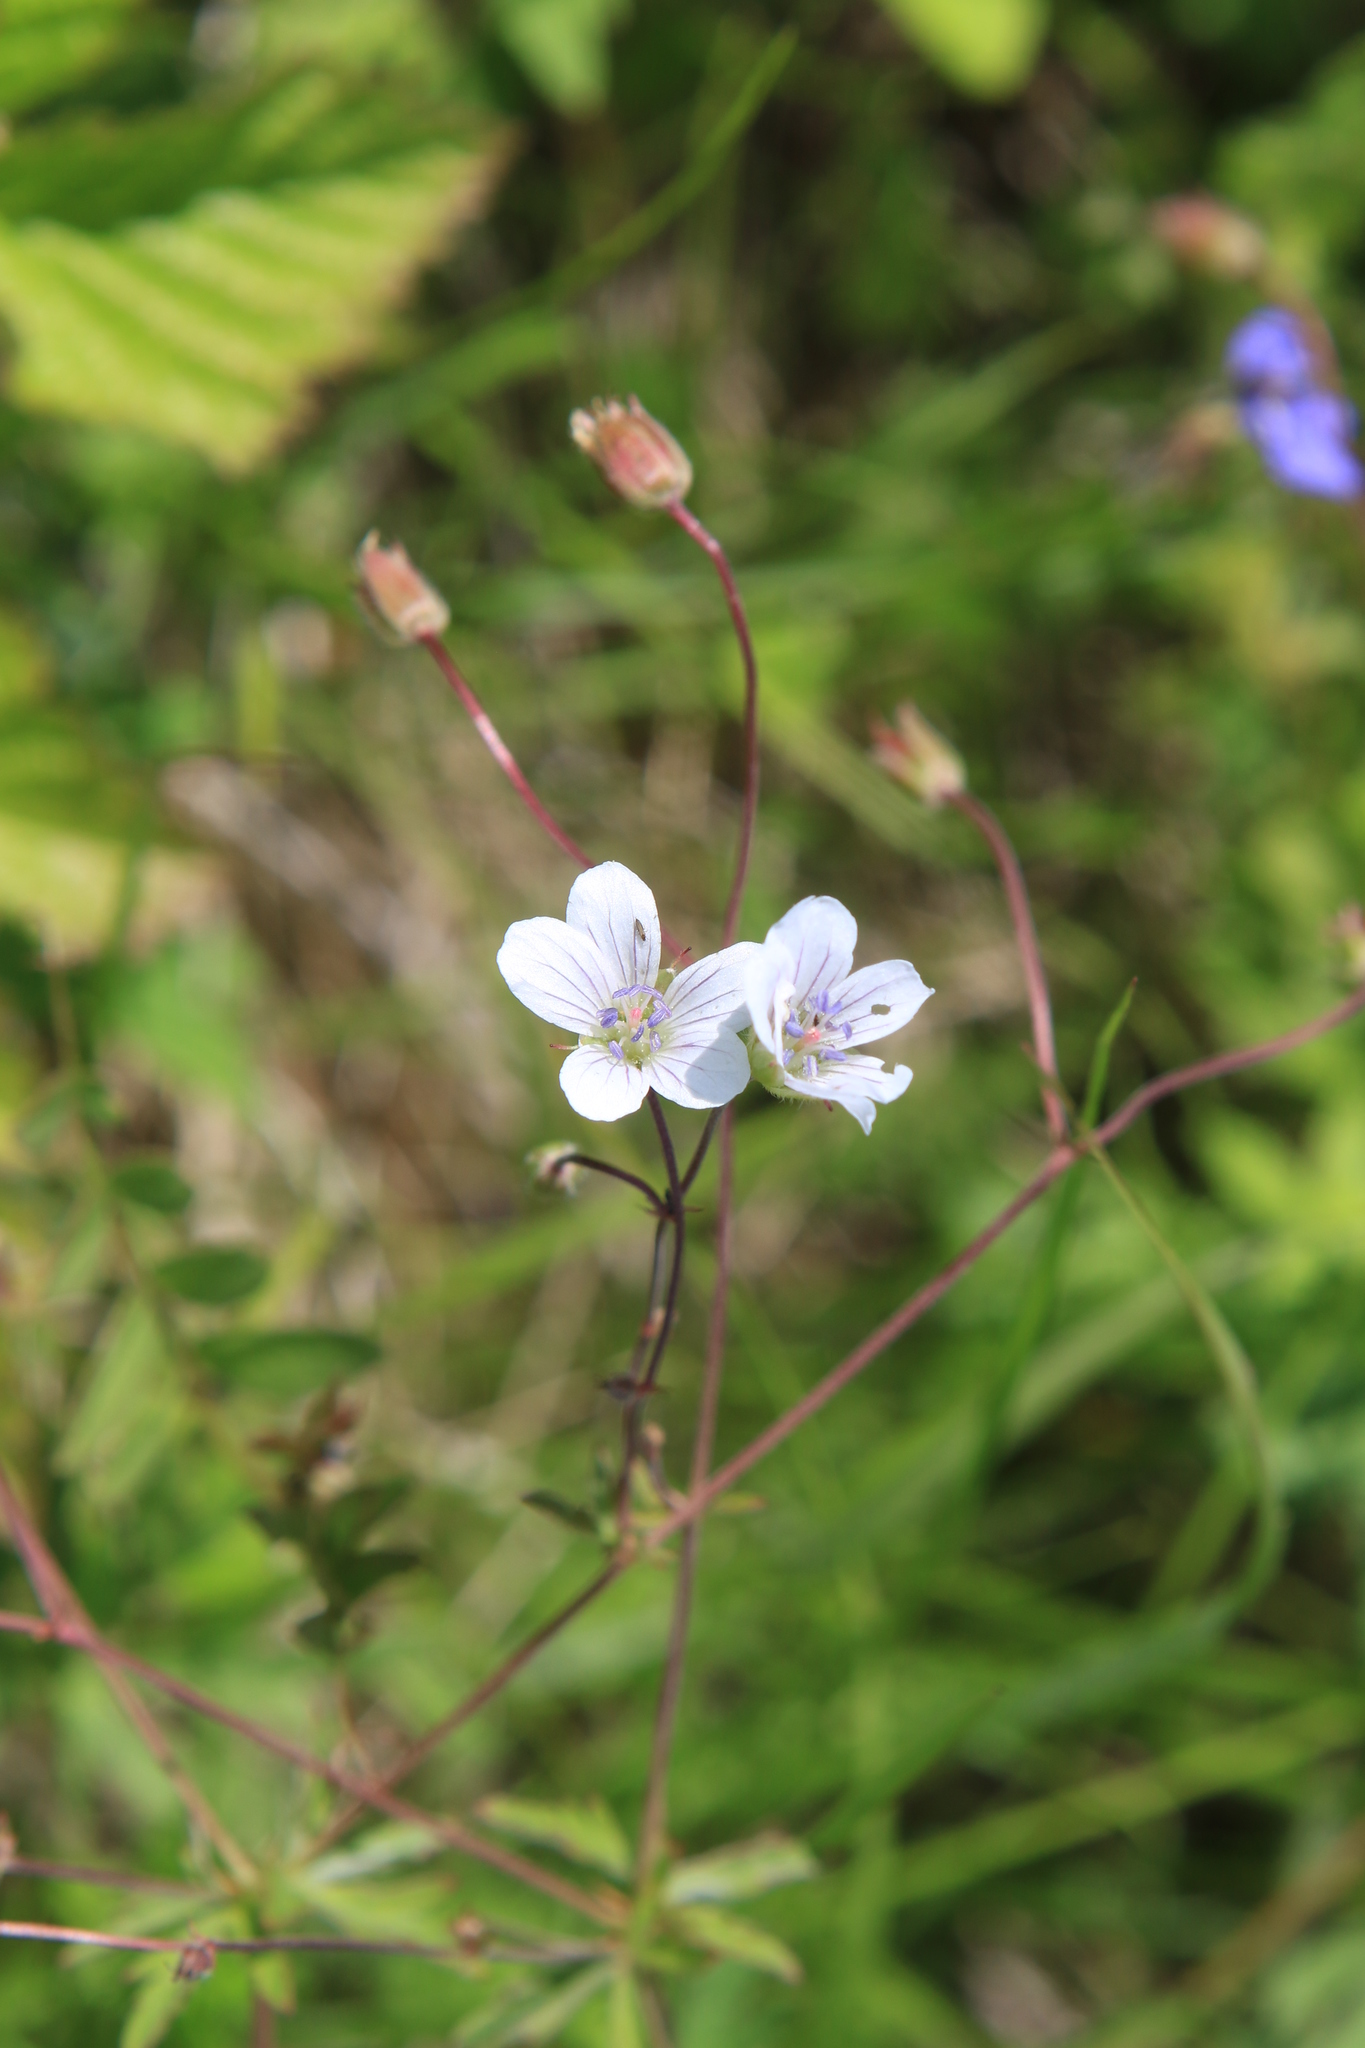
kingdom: Plantae
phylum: Tracheophyta
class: Magnoliopsida
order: Geraniales
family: Geraniaceae
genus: Geranium
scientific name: Geranium pseudosibiricum
